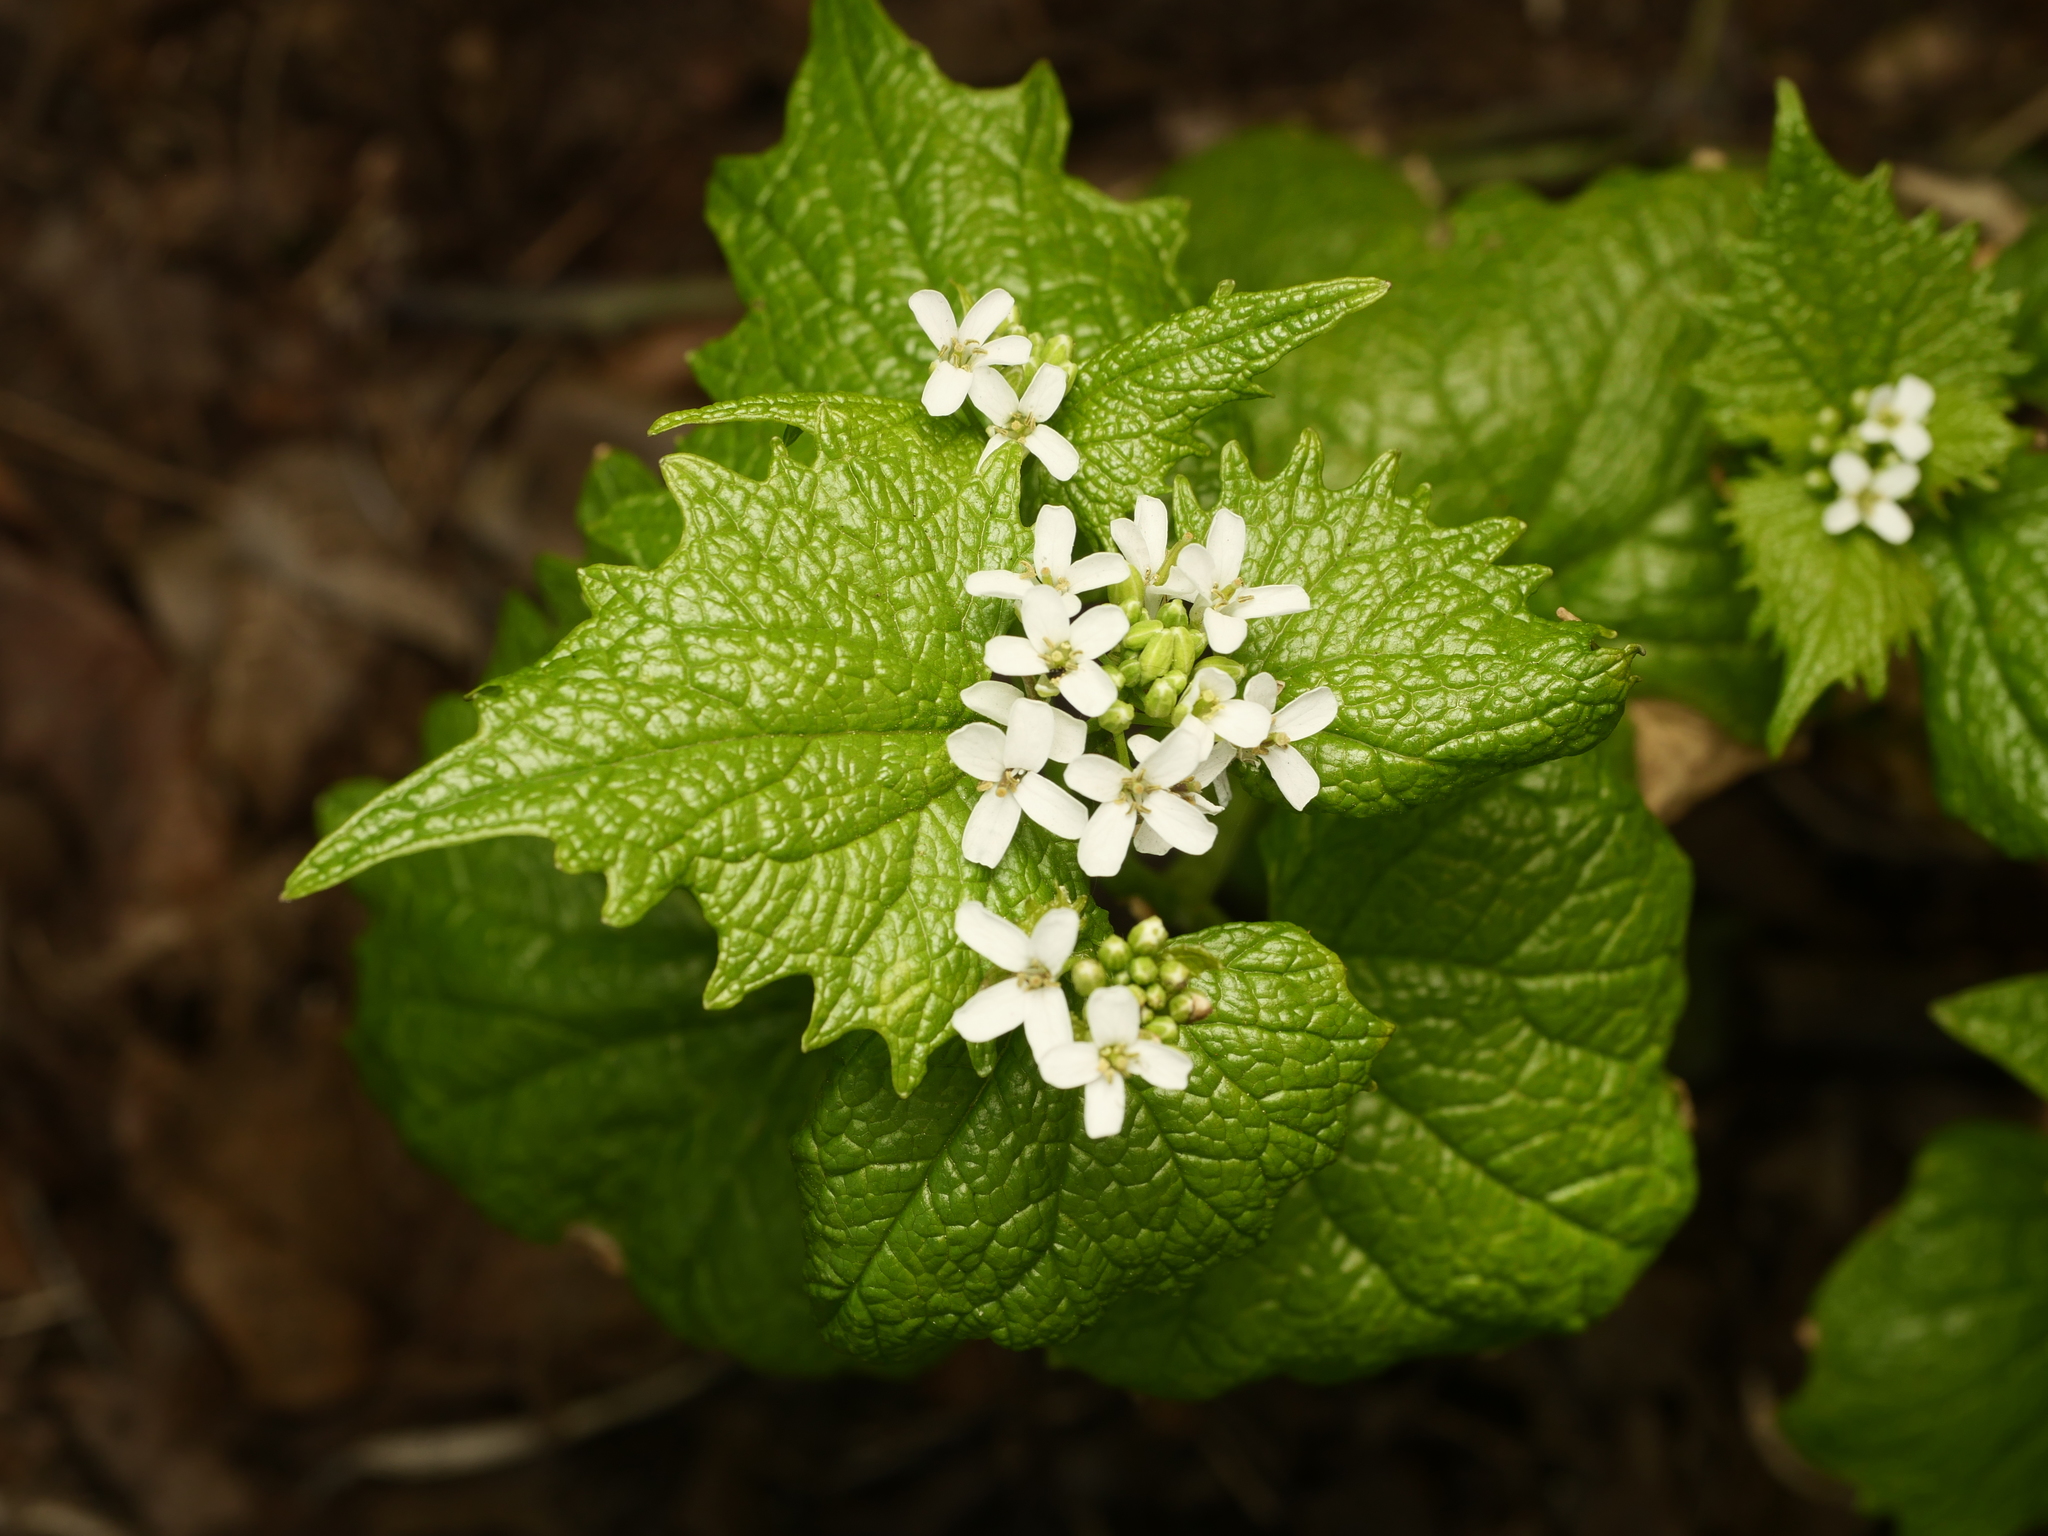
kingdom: Plantae
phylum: Tracheophyta
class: Magnoliopsida
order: Brassicales
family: Brassicaceae
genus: Alliaria
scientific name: Alliaria petiolata
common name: Garlic mustard
